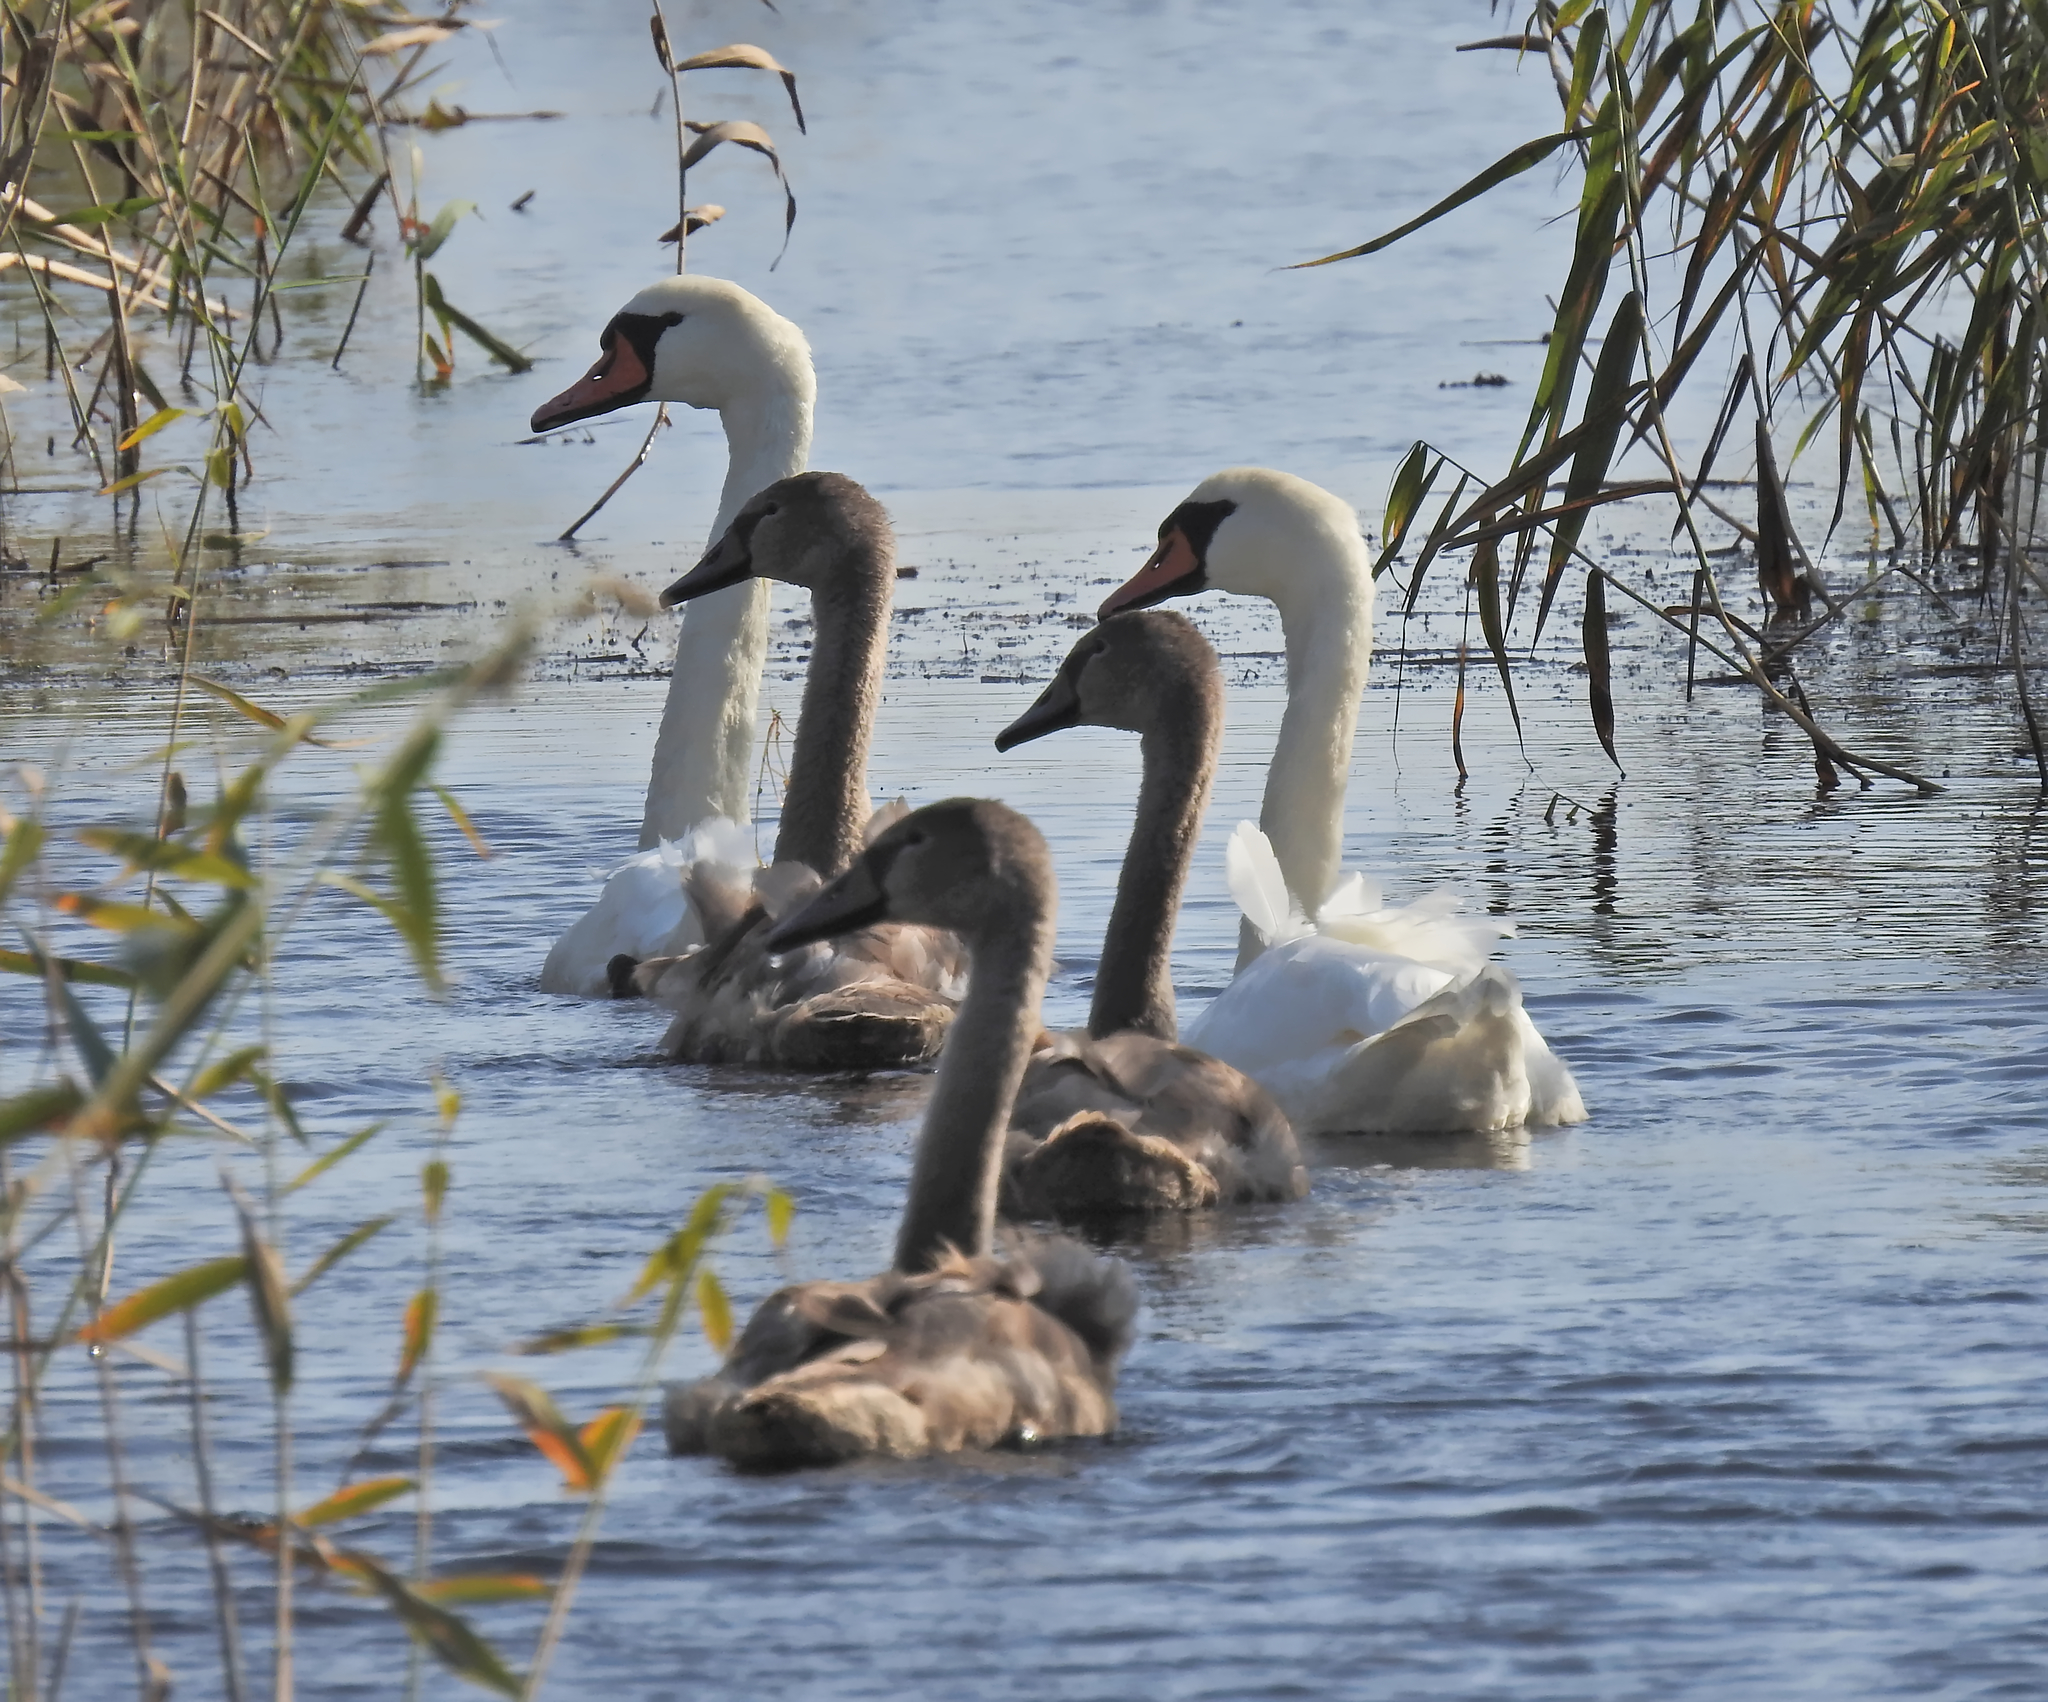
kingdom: Animalia
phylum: Chordata
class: Aves
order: Anseriformes
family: Anatidae
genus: Cygnus
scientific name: Cygnus olor
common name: Mute swan
